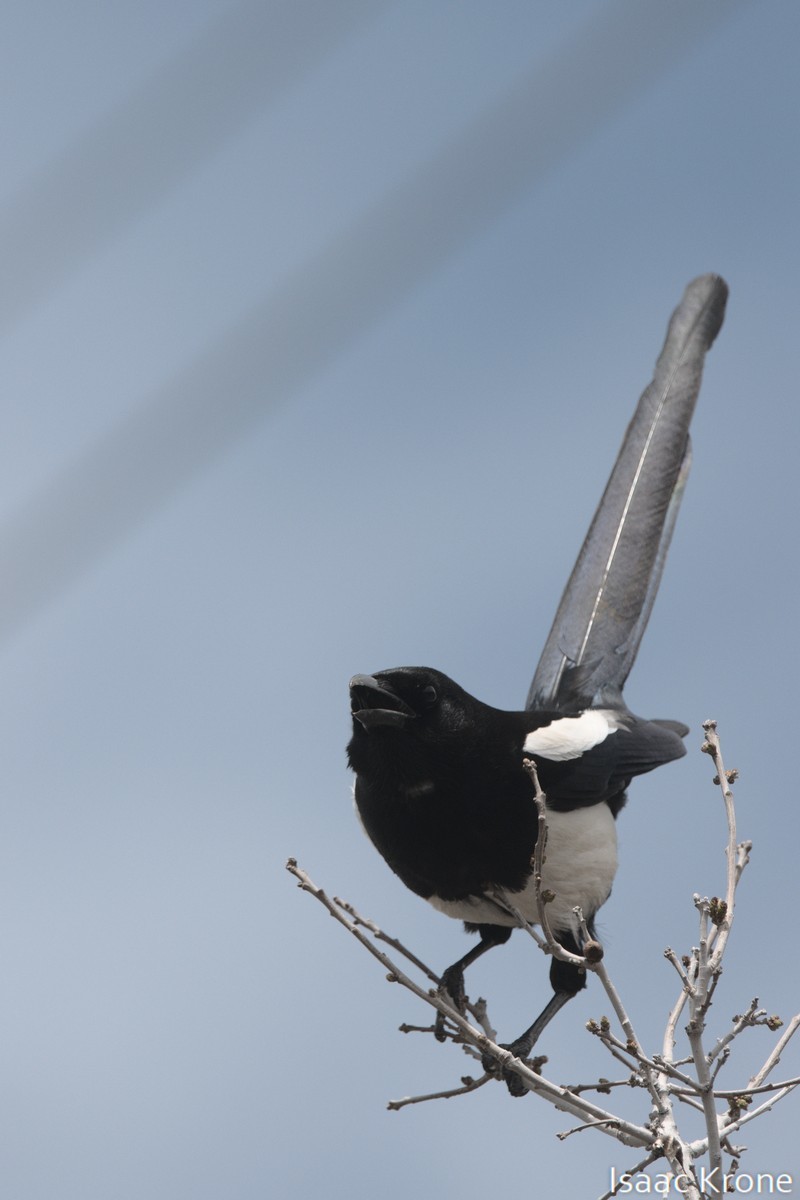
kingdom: Animalia
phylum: Chordata
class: Aves
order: Passeriformes
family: Corvidae
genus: Pica
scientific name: Pica hudsonia
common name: Black-billed magpie
